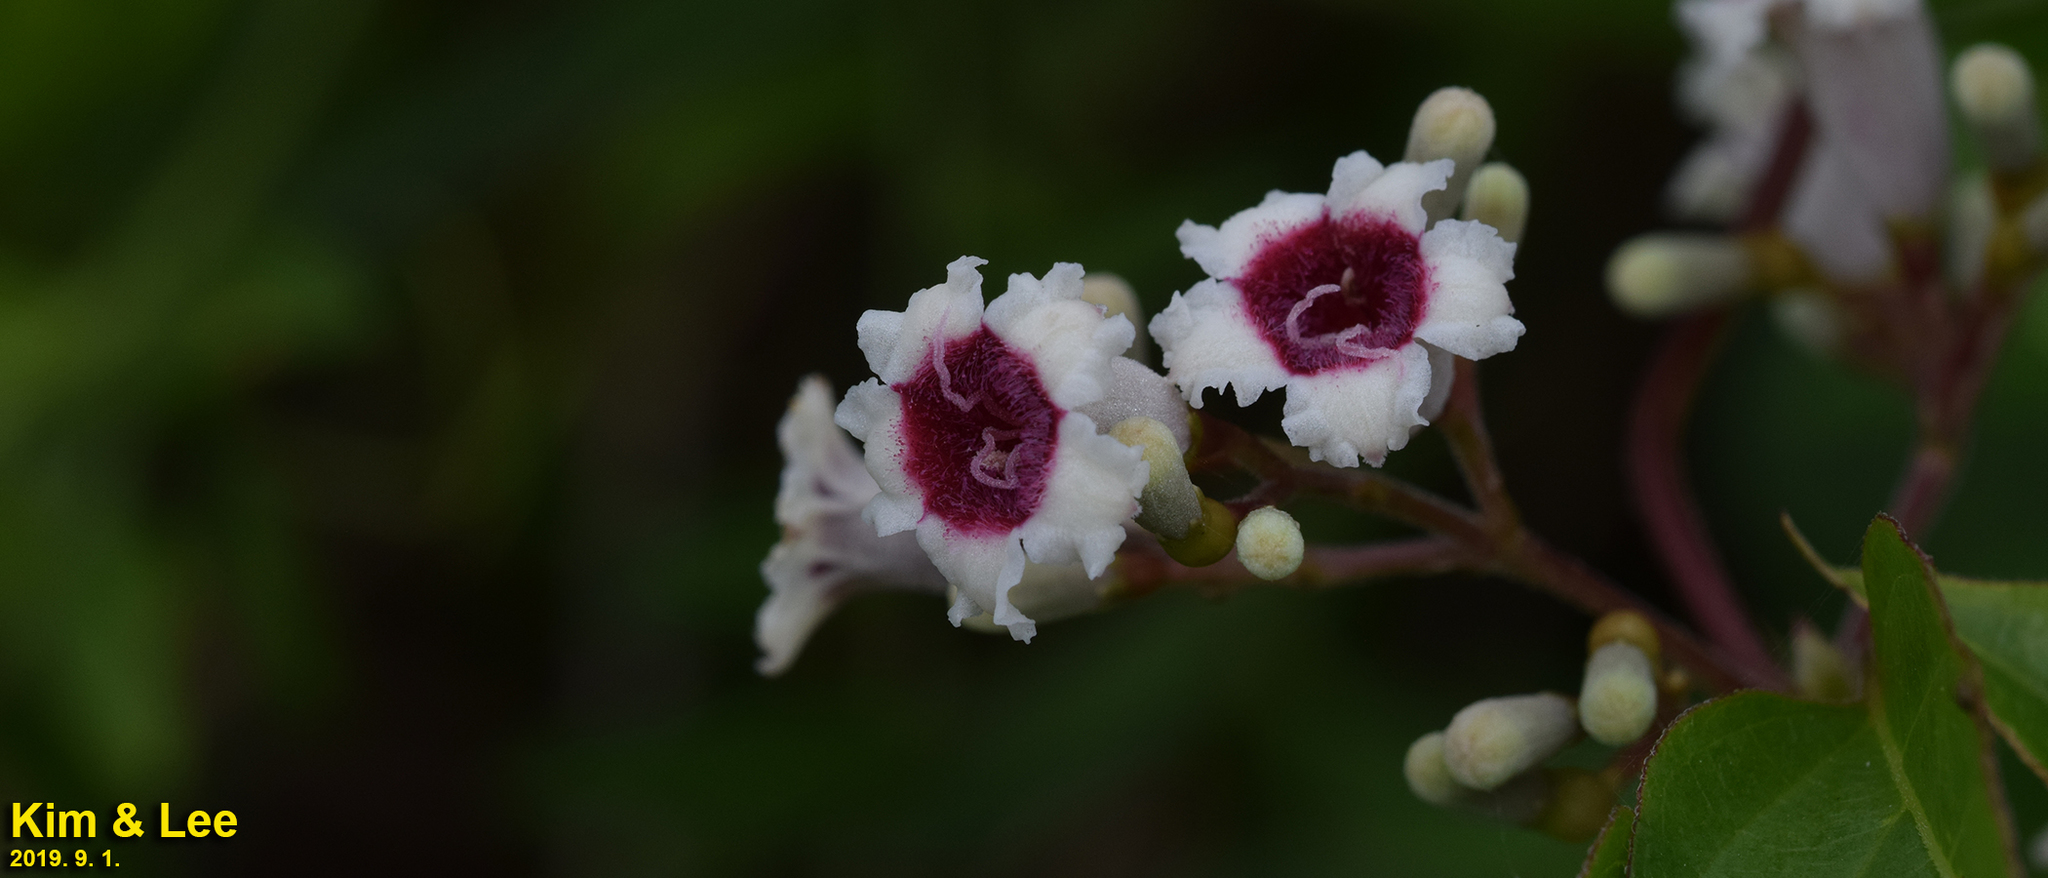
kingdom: Plantae
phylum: Tracheophyta
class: Magnoliopsida
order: Gentianales
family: Rubiaceae
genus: Paederia
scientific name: Paederia foetida
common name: Stinkvine
